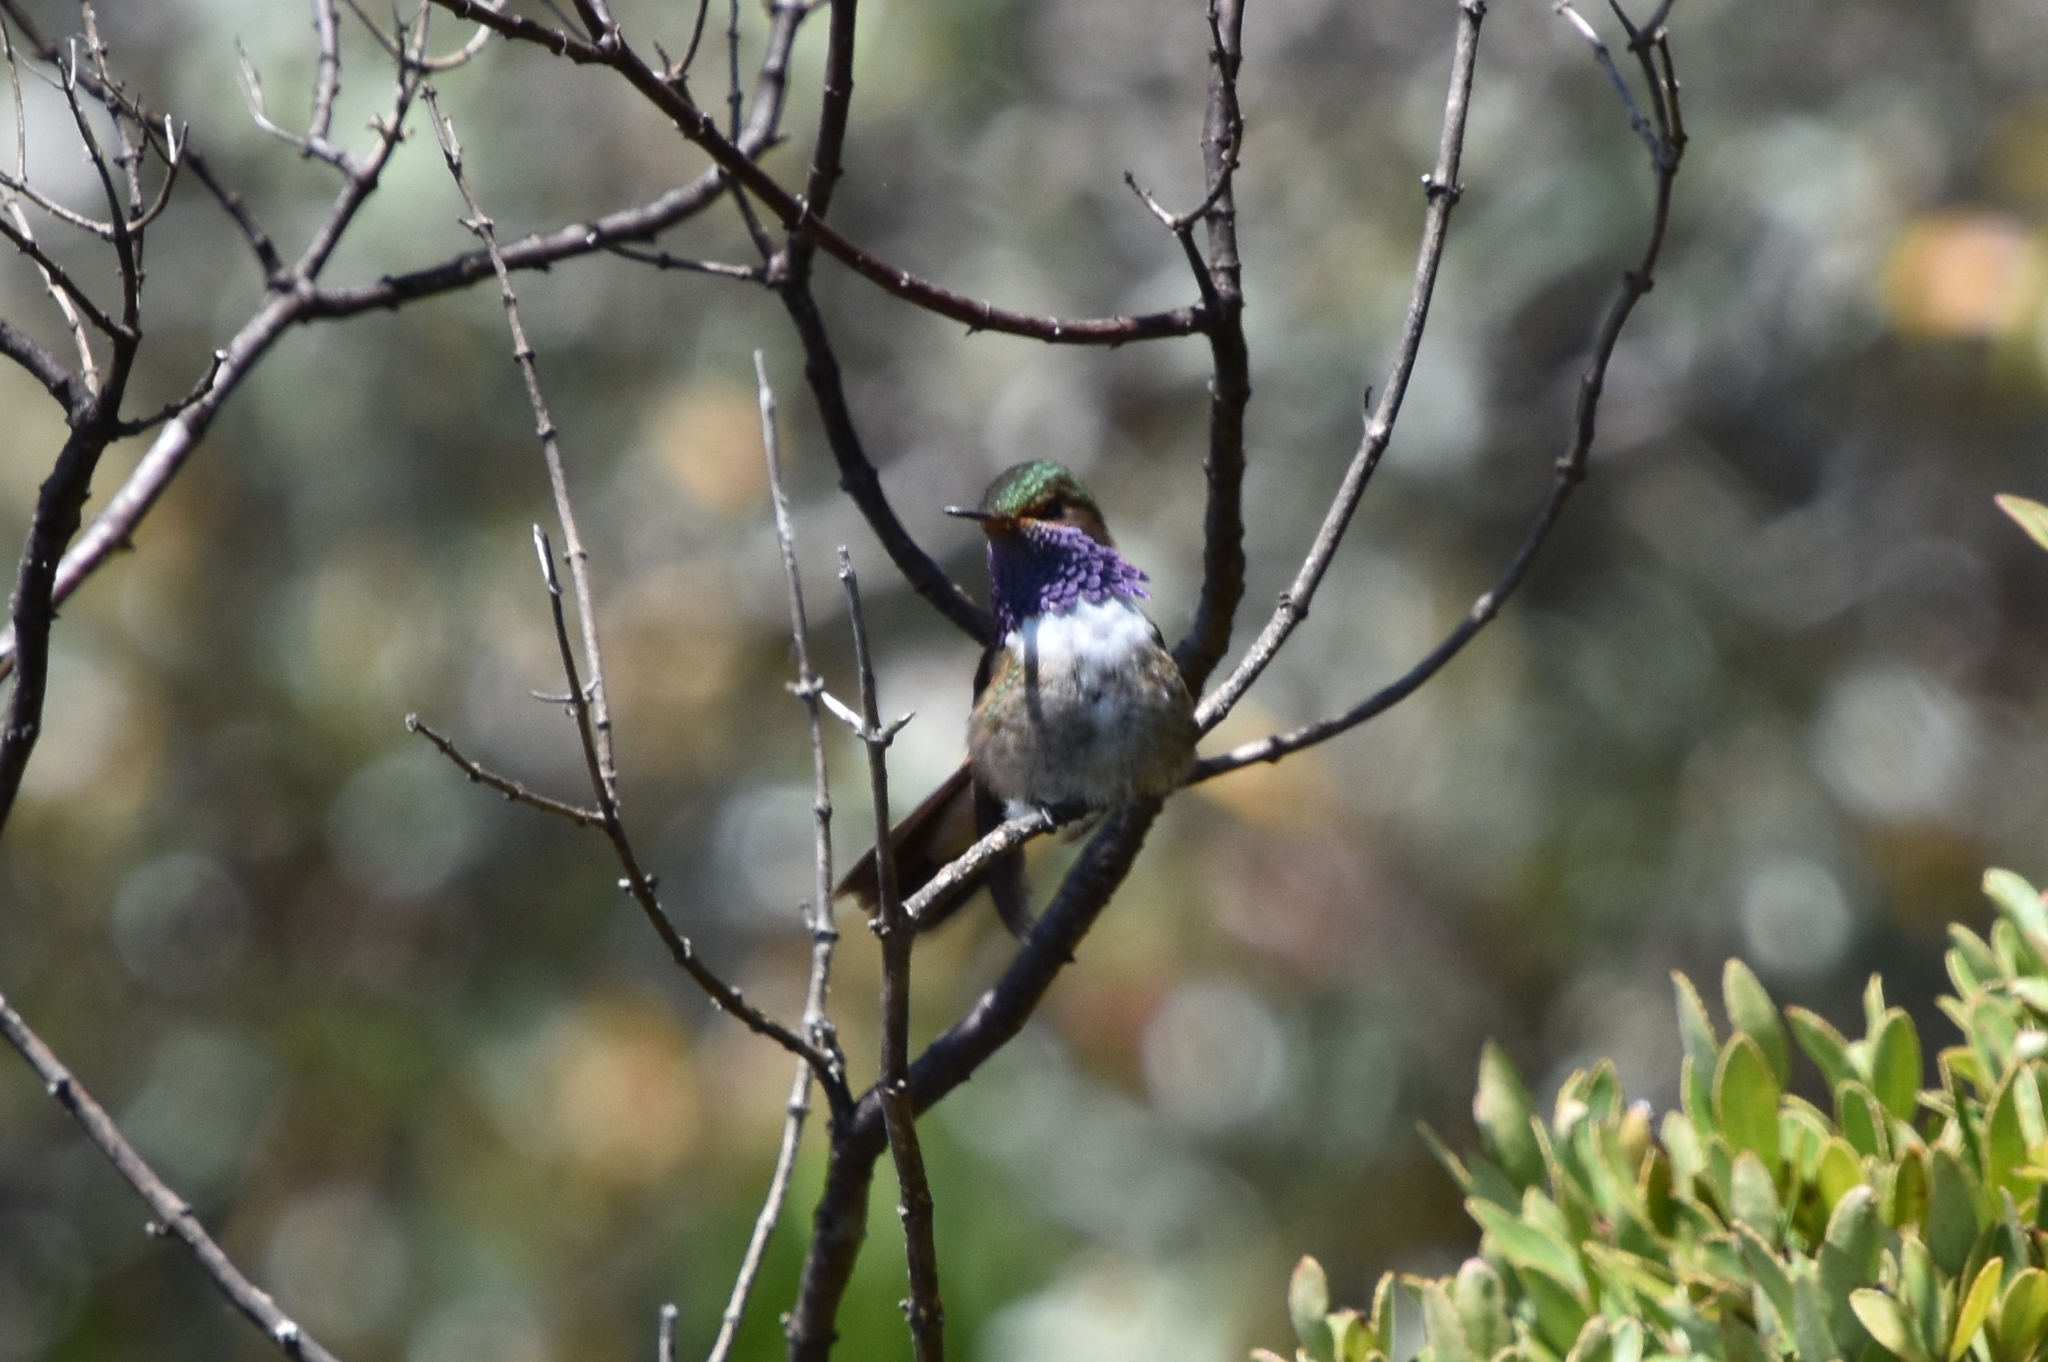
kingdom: Animalia
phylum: Chordata
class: Aves
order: Apodiformes
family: Trochilidae
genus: Selasphorus
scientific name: Selasphorus flammula
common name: Volcano hummingbird
